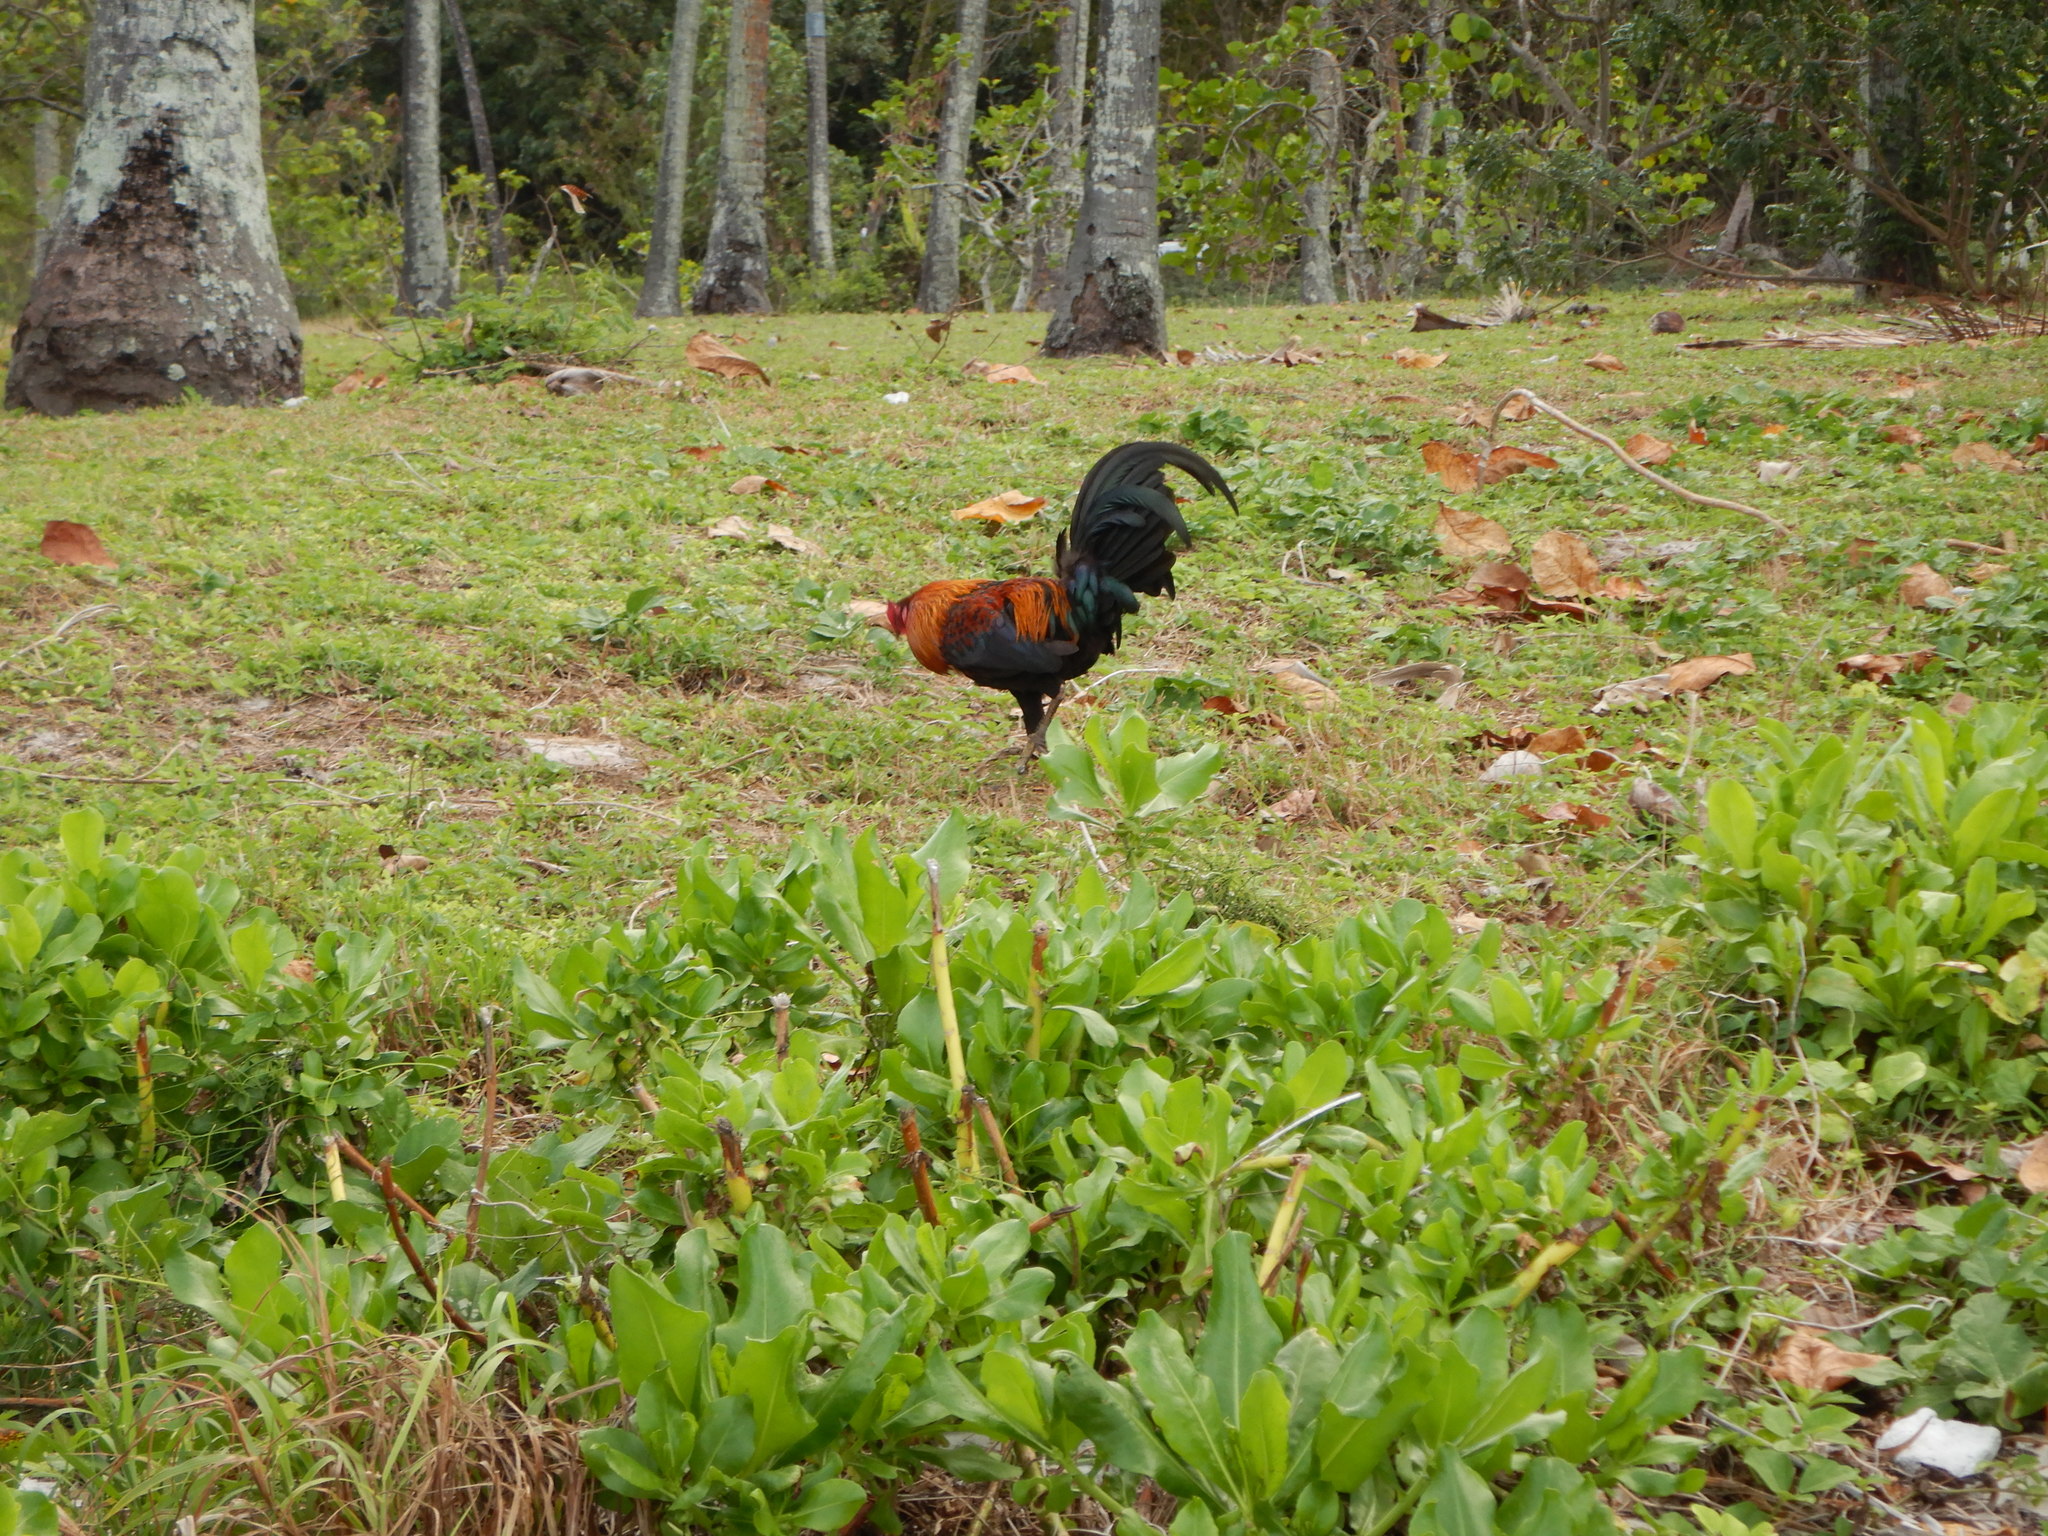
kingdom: Animalia
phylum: Chordata
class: Aves
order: Galliformes
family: Phasianidae
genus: Gallus
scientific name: Gallus gallus
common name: Red junglefowl
